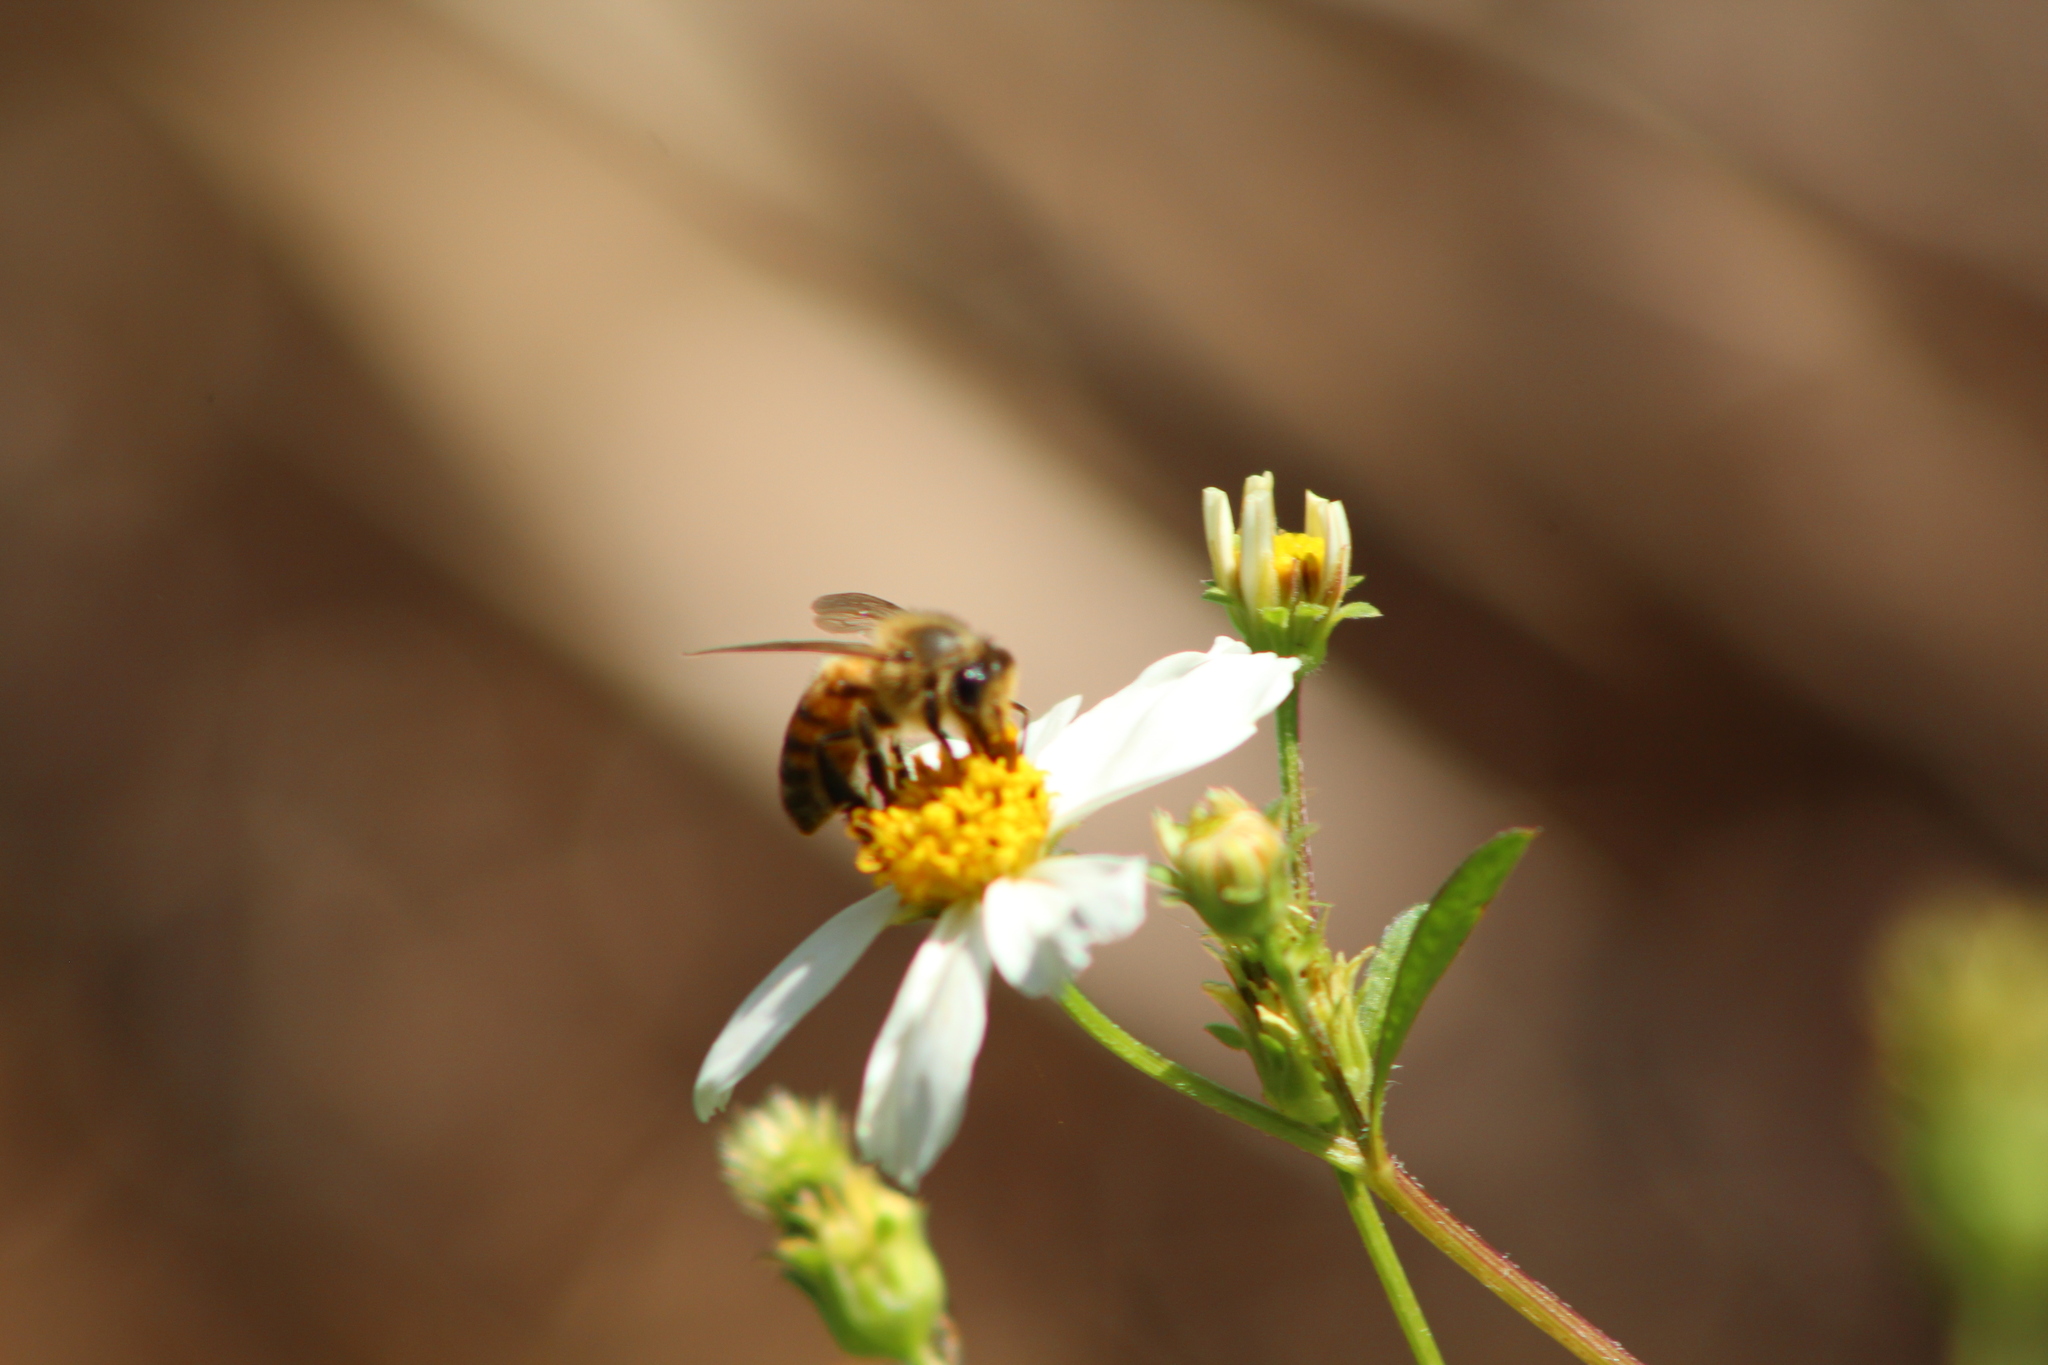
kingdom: Animalia
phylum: Arthropoda
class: Insecta
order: Hymenoptera
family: Apidae
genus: Apis
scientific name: Apis mellifera
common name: Honey bee
